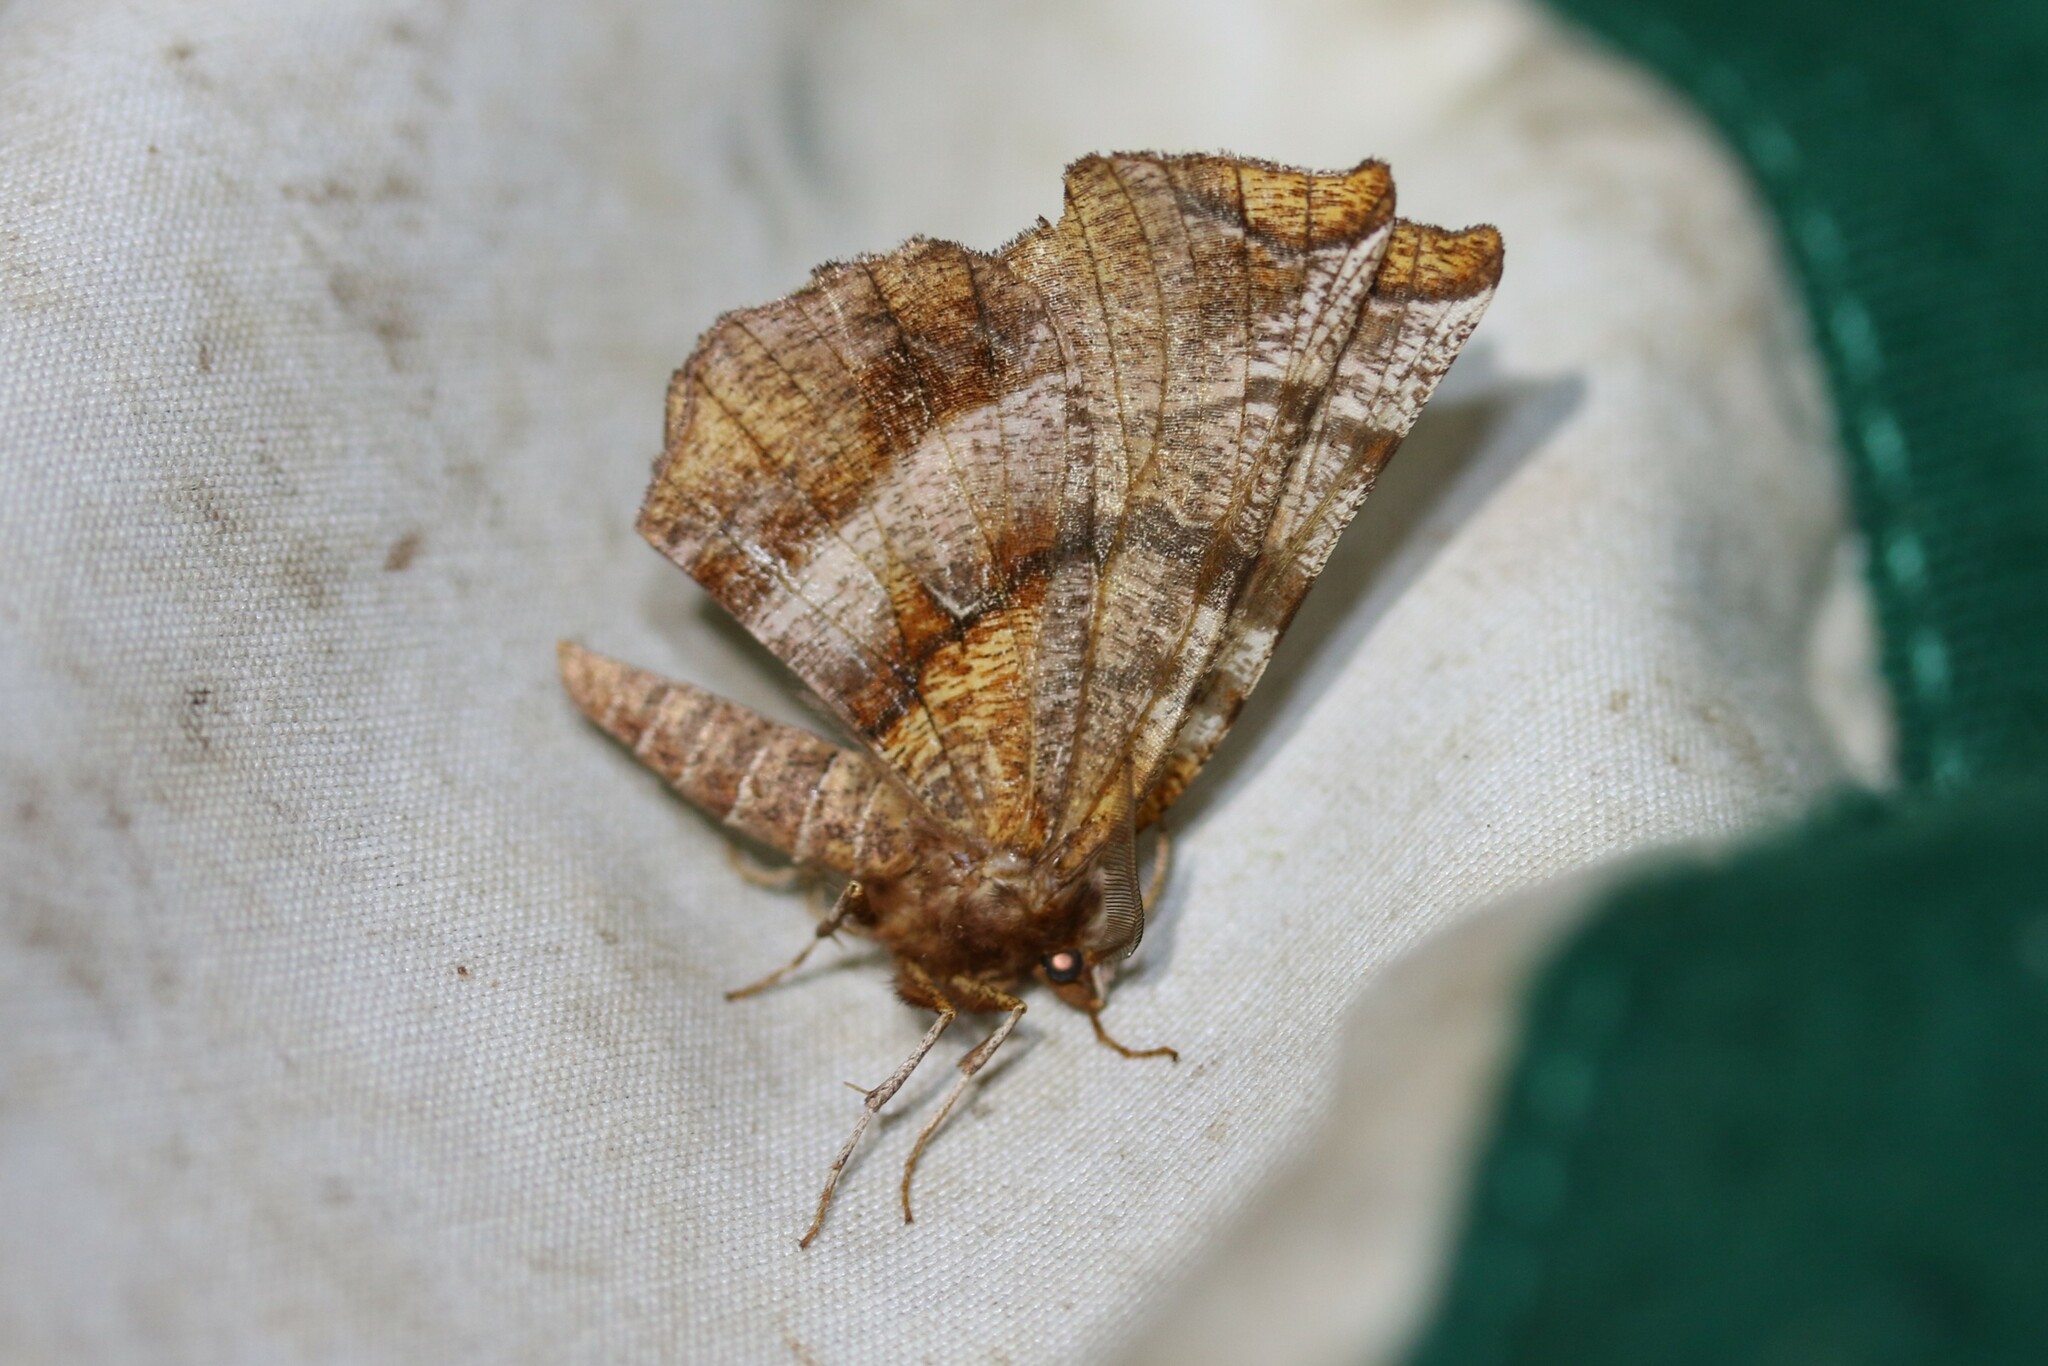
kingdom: Animalia
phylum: Arthropoda
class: Insecta
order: Lepidoptera
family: Geometridae
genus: Selenia
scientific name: Selenia dentaria
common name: Early thorn
